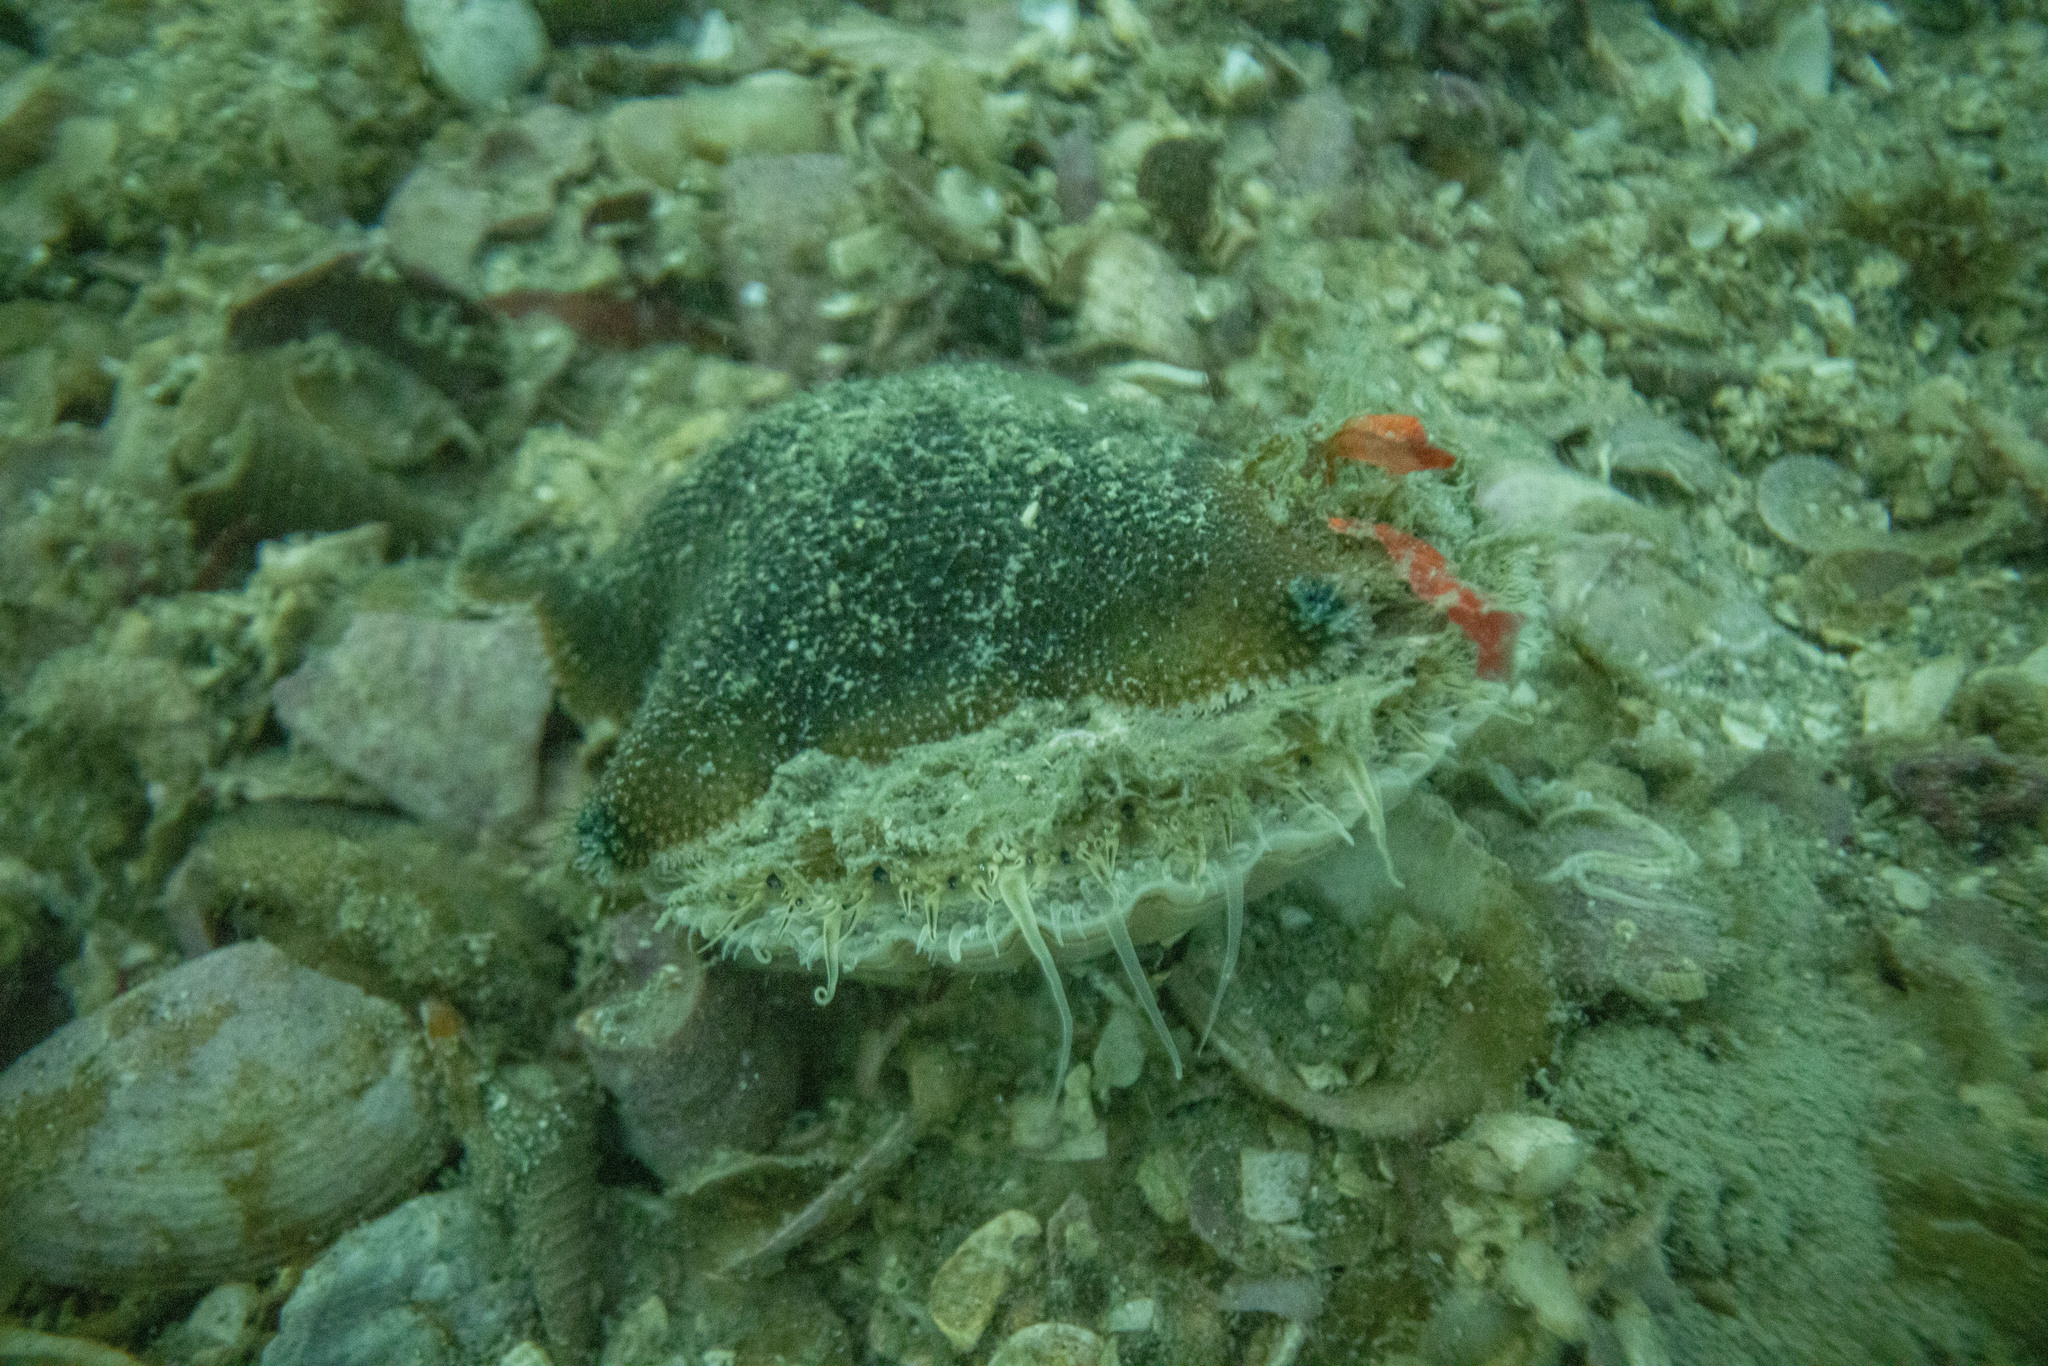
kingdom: Animalia
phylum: Mollusca
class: Bivalvia
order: Pectinida
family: Pectinidae
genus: Pecten
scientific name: Pecten novaezelandiae
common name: New zealand scallop
